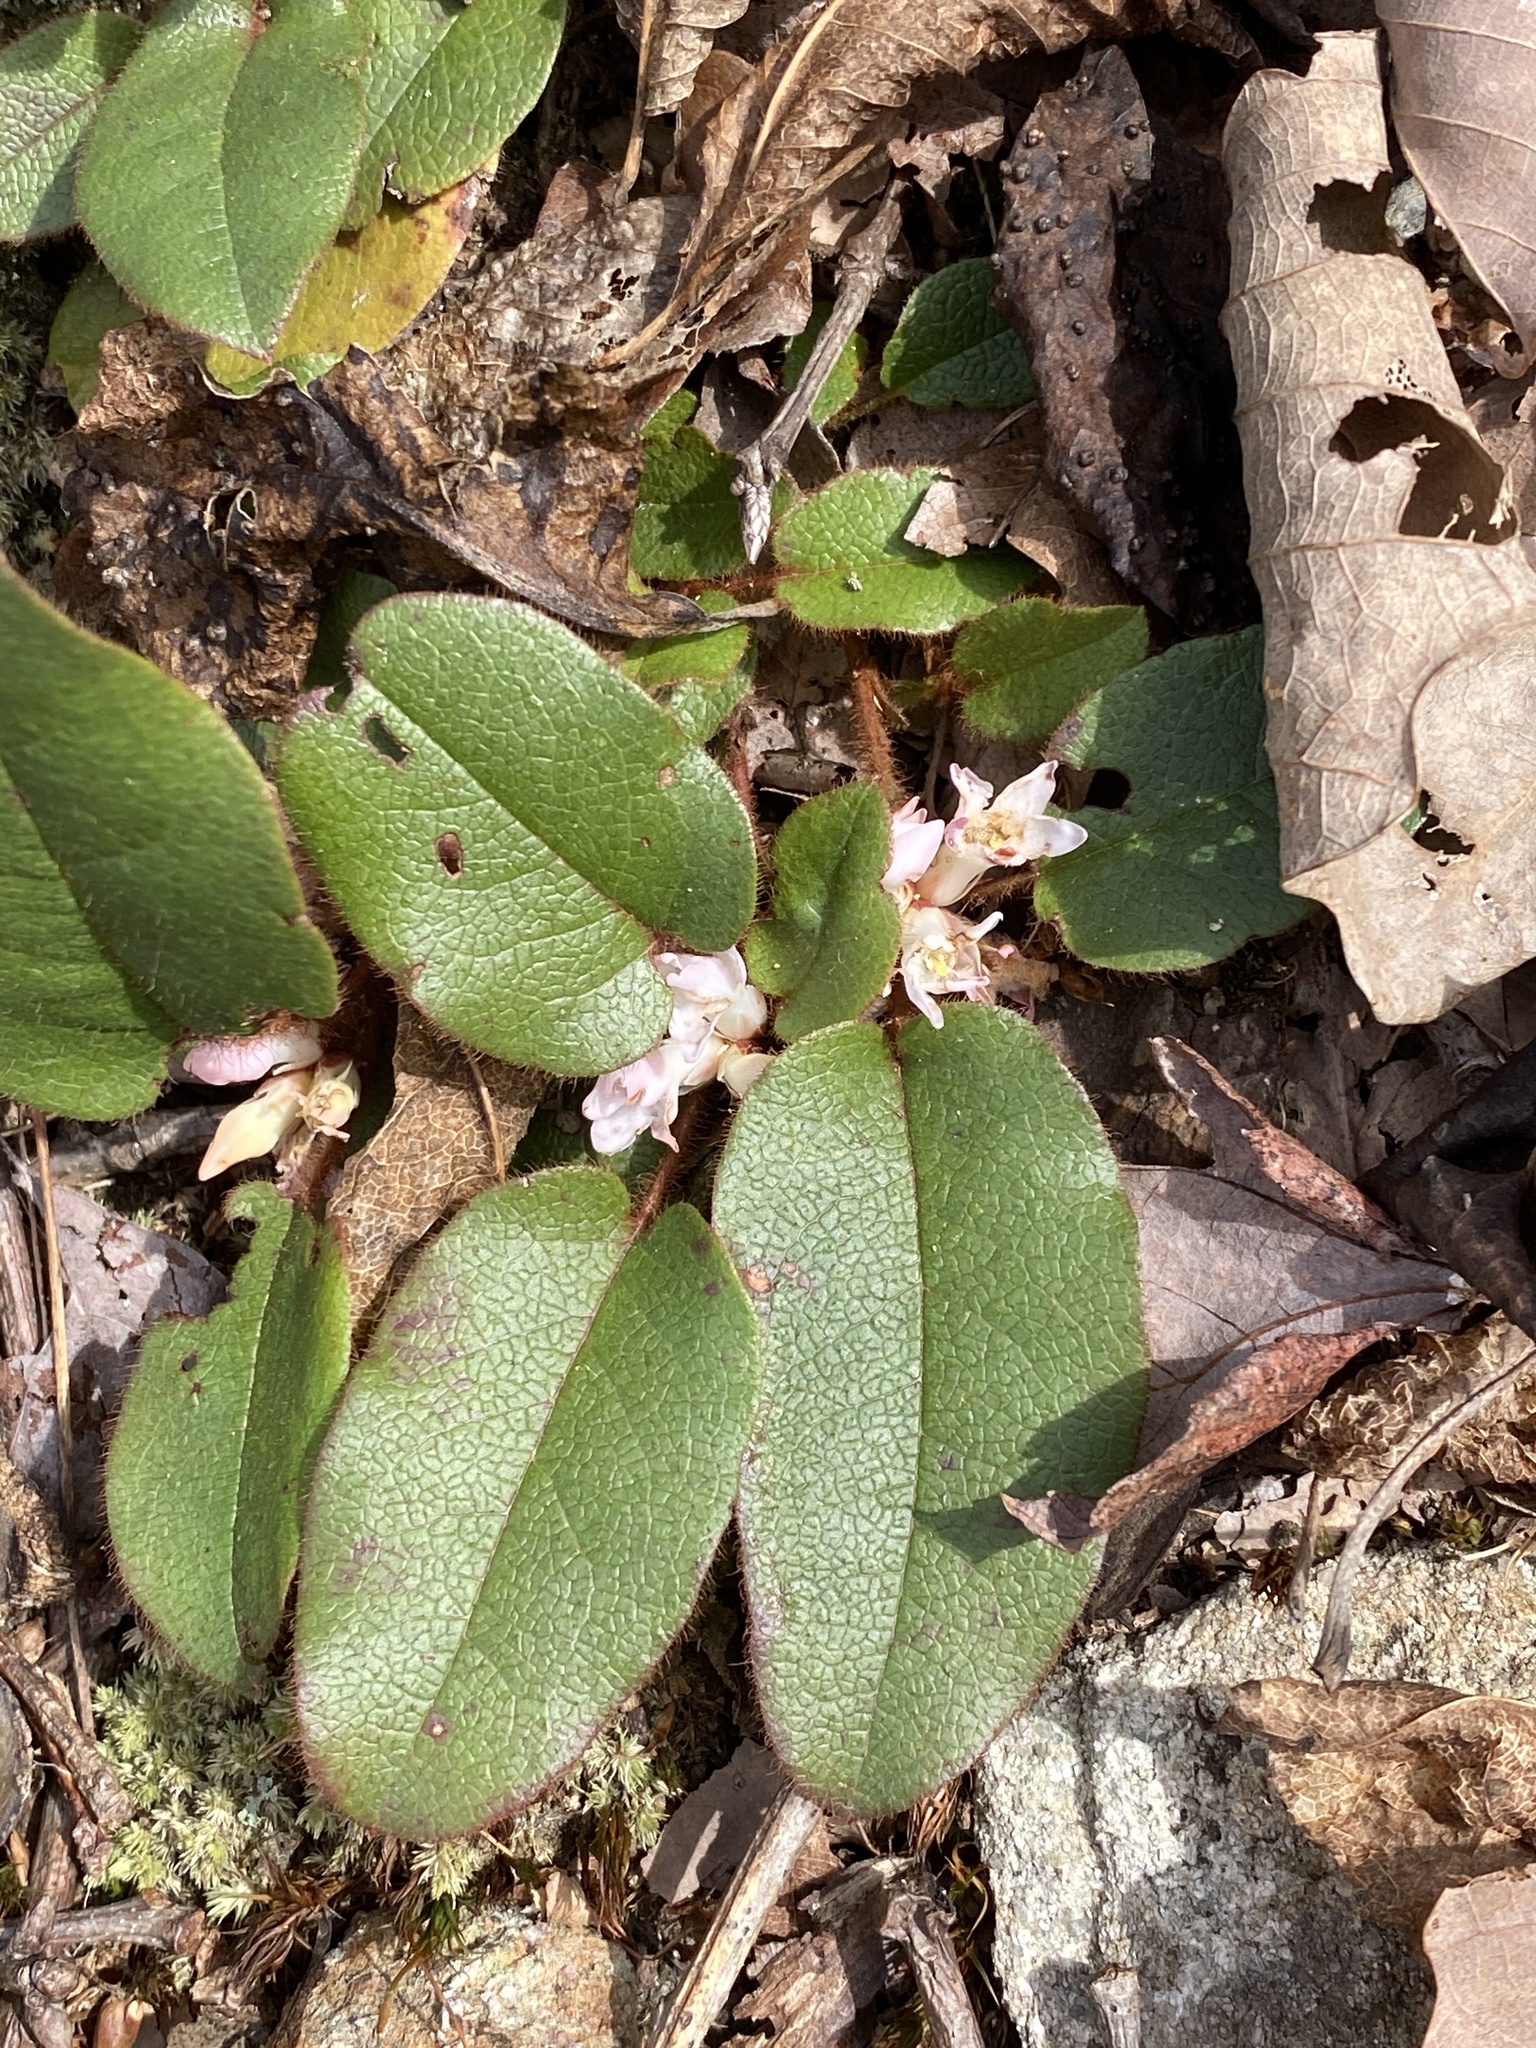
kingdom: Plantae
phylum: Tracheophyta
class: Magnoliopsida
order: Ericales
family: Ericaceae
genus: Epigaea
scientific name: Epigaea repens
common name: Gravelroot
